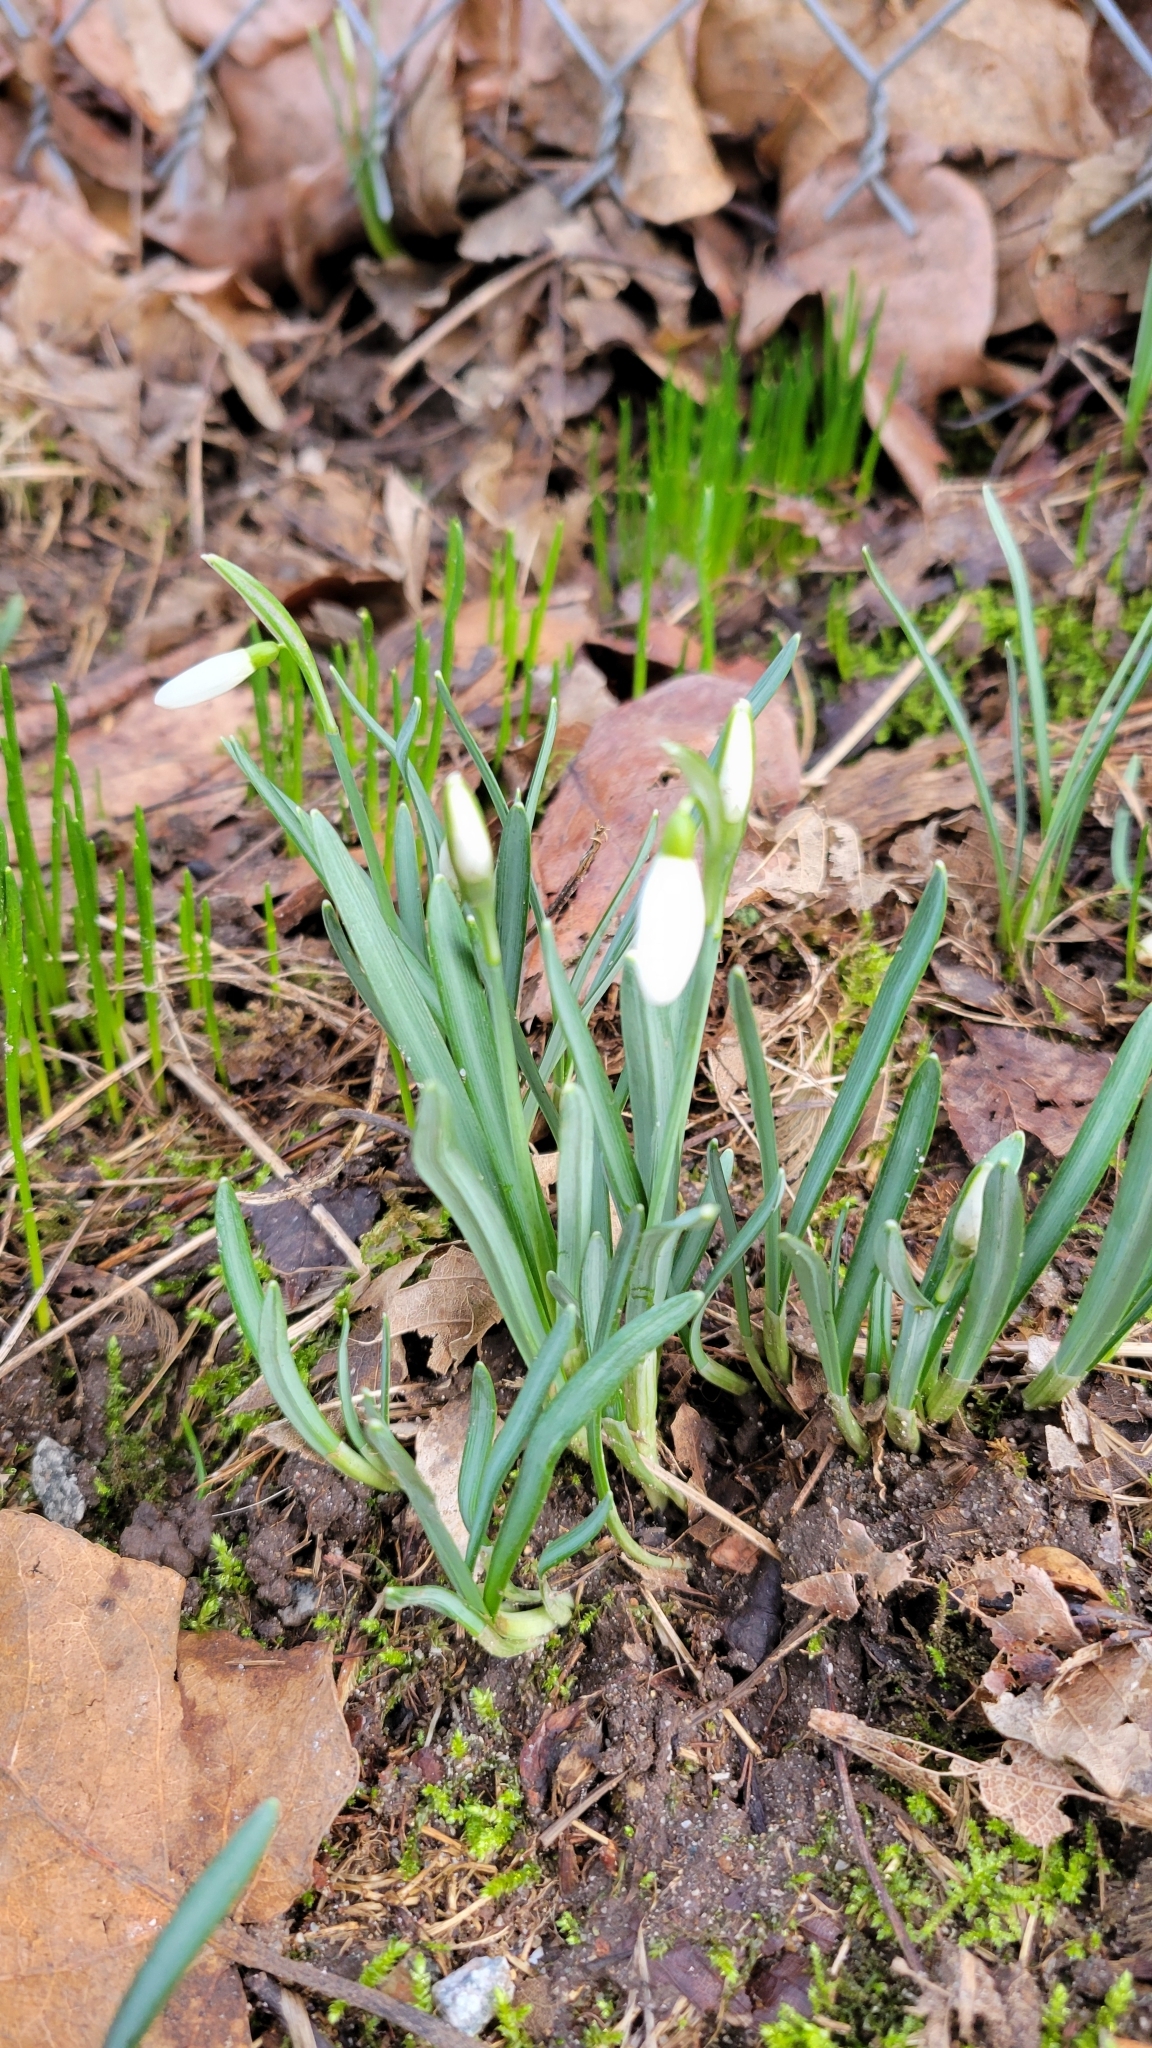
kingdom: Plantae
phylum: Tracheophyta
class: Liliopsida
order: Asparagales
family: Amaryllidaceae
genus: Galanthus
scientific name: Galanthus nivalis
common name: Snowdrop
